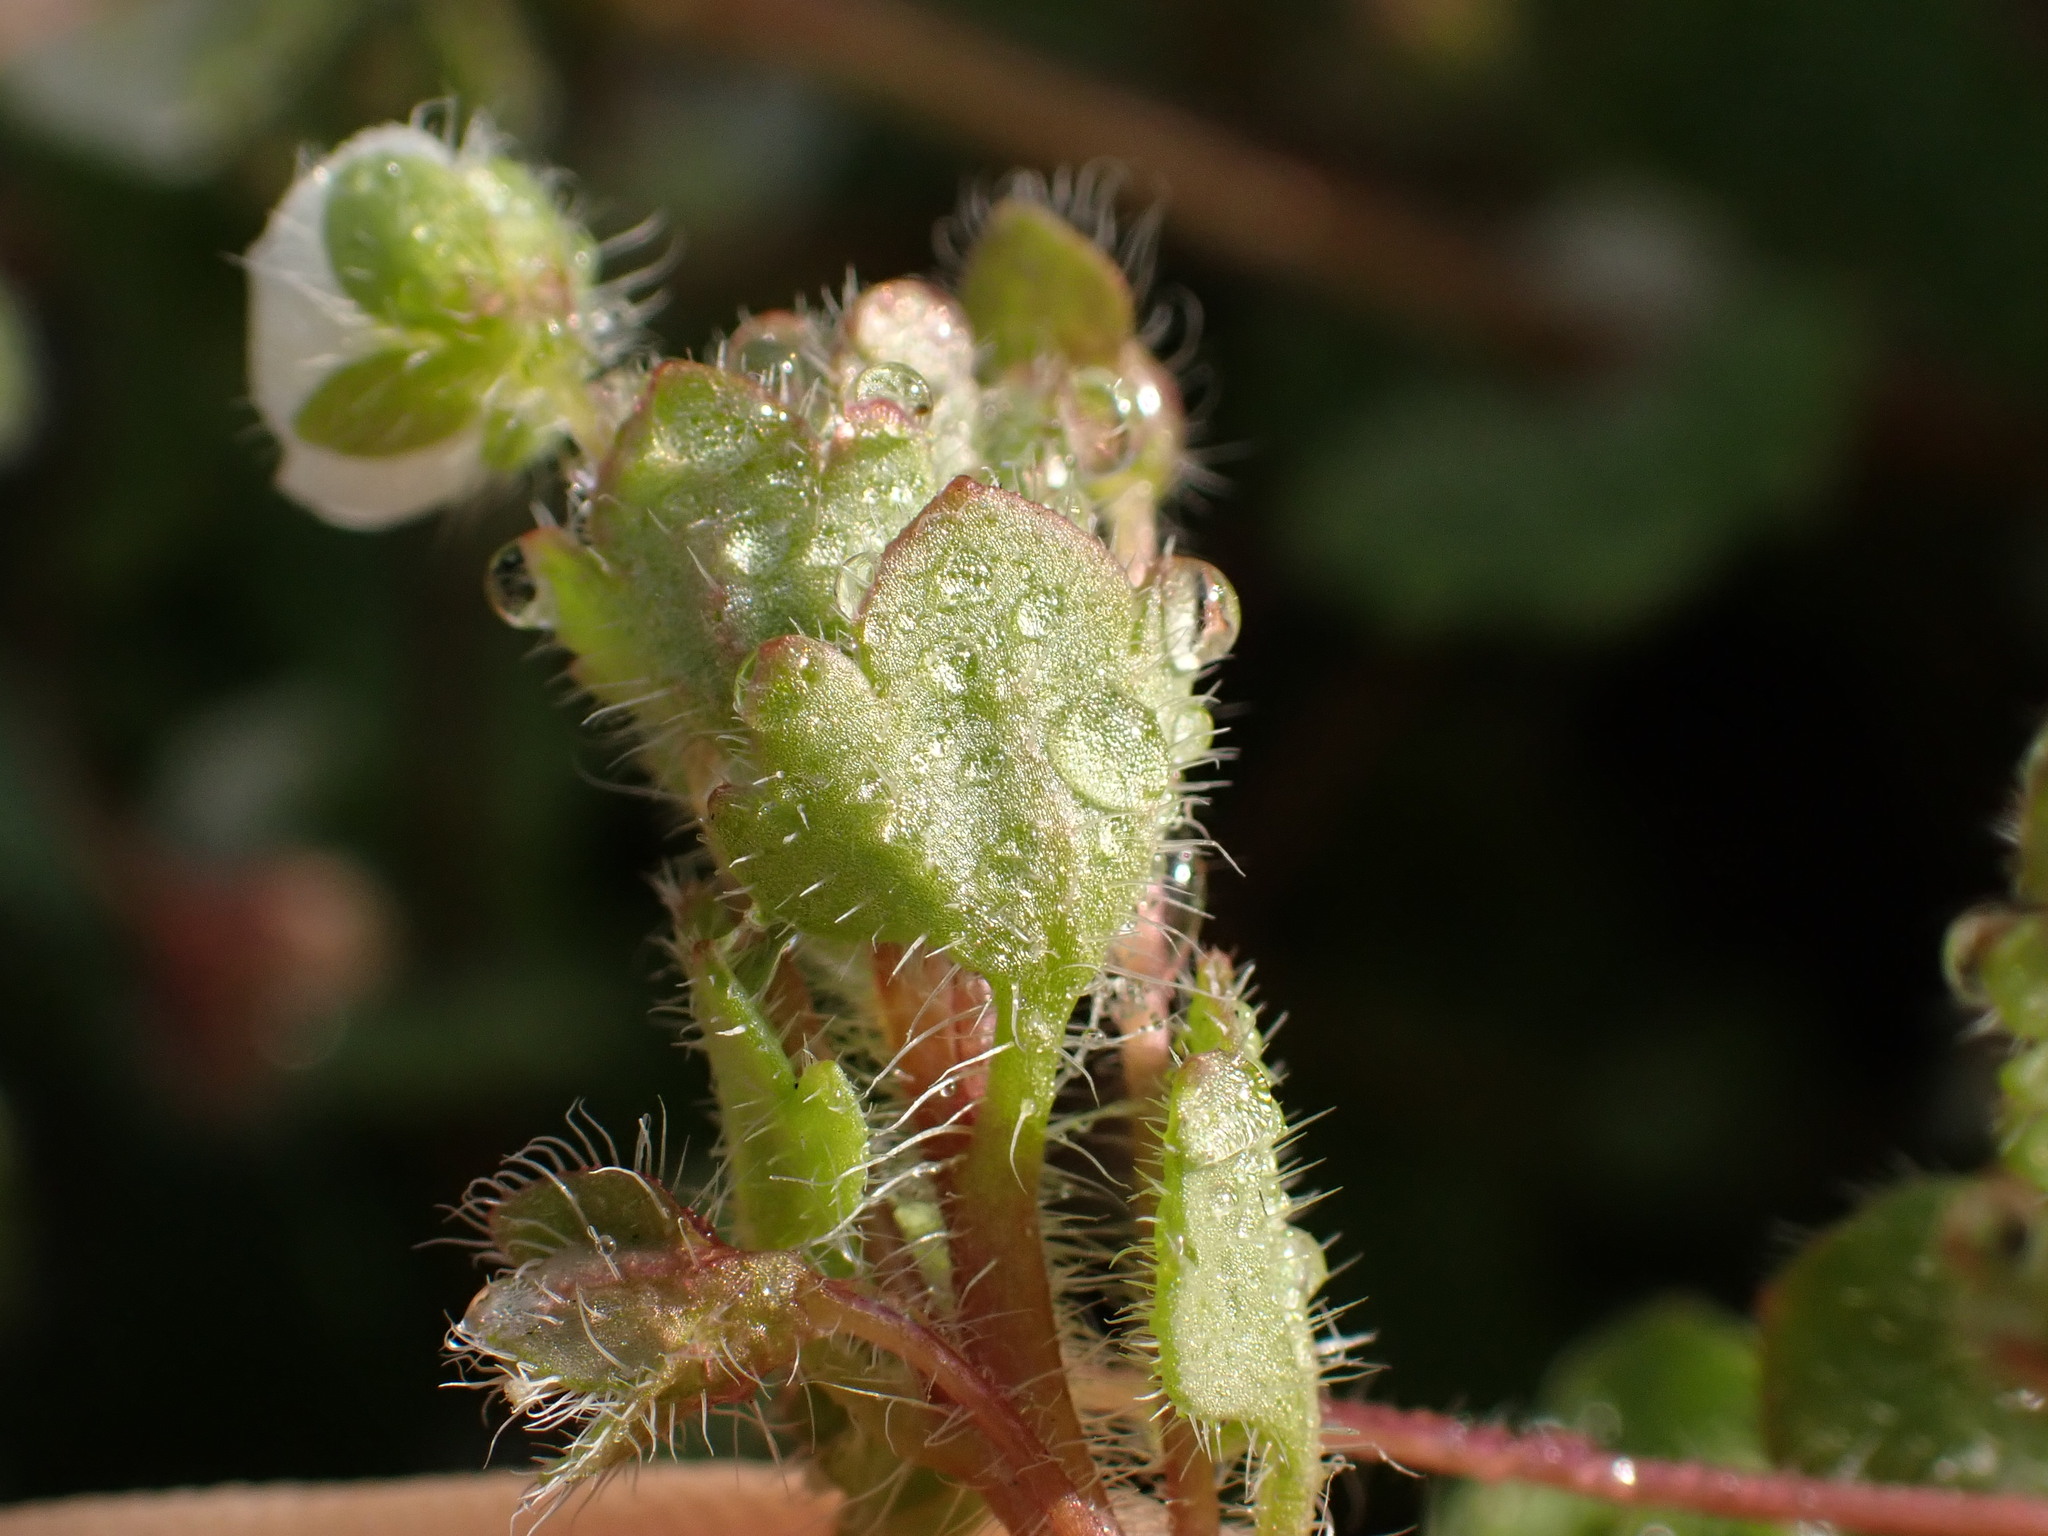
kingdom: Plantae
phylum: Tracheophyta
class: Magnoliopsida
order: Lamiales
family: Plantaginaceae
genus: Veronica
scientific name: Veronica cymbalaria
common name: Pale speedwell
